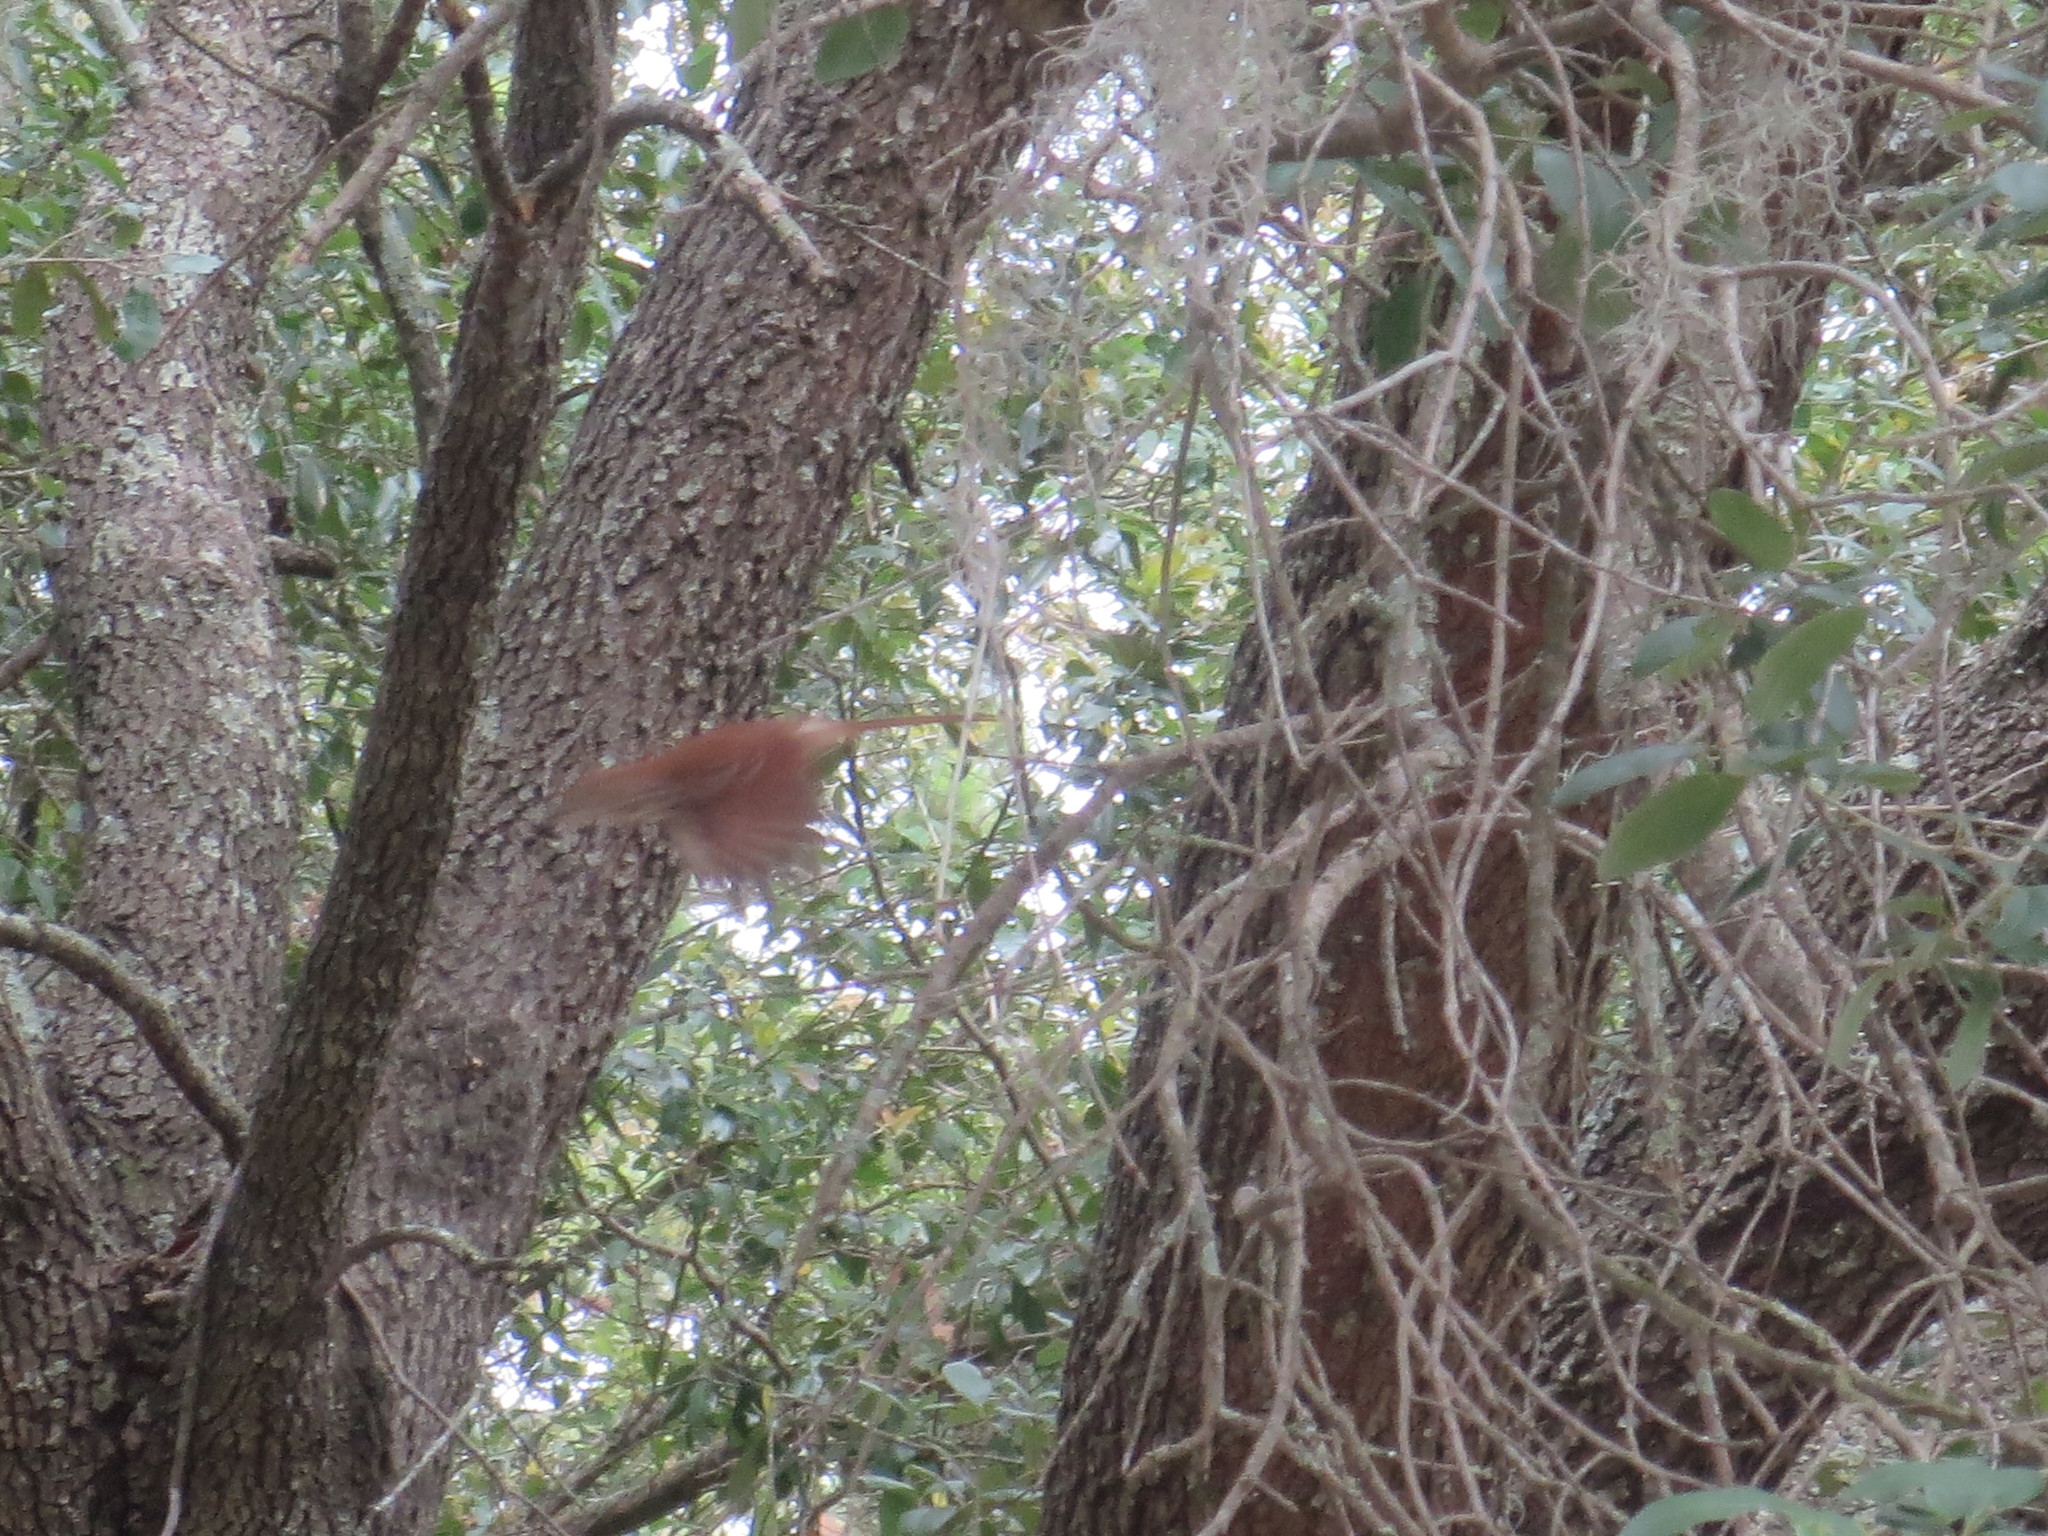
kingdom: Animalia
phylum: Chordata
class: Aves
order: Passeriformes
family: Mimidae
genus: Toxostoma
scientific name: Toxostoma rufum
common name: Brown thrasher
